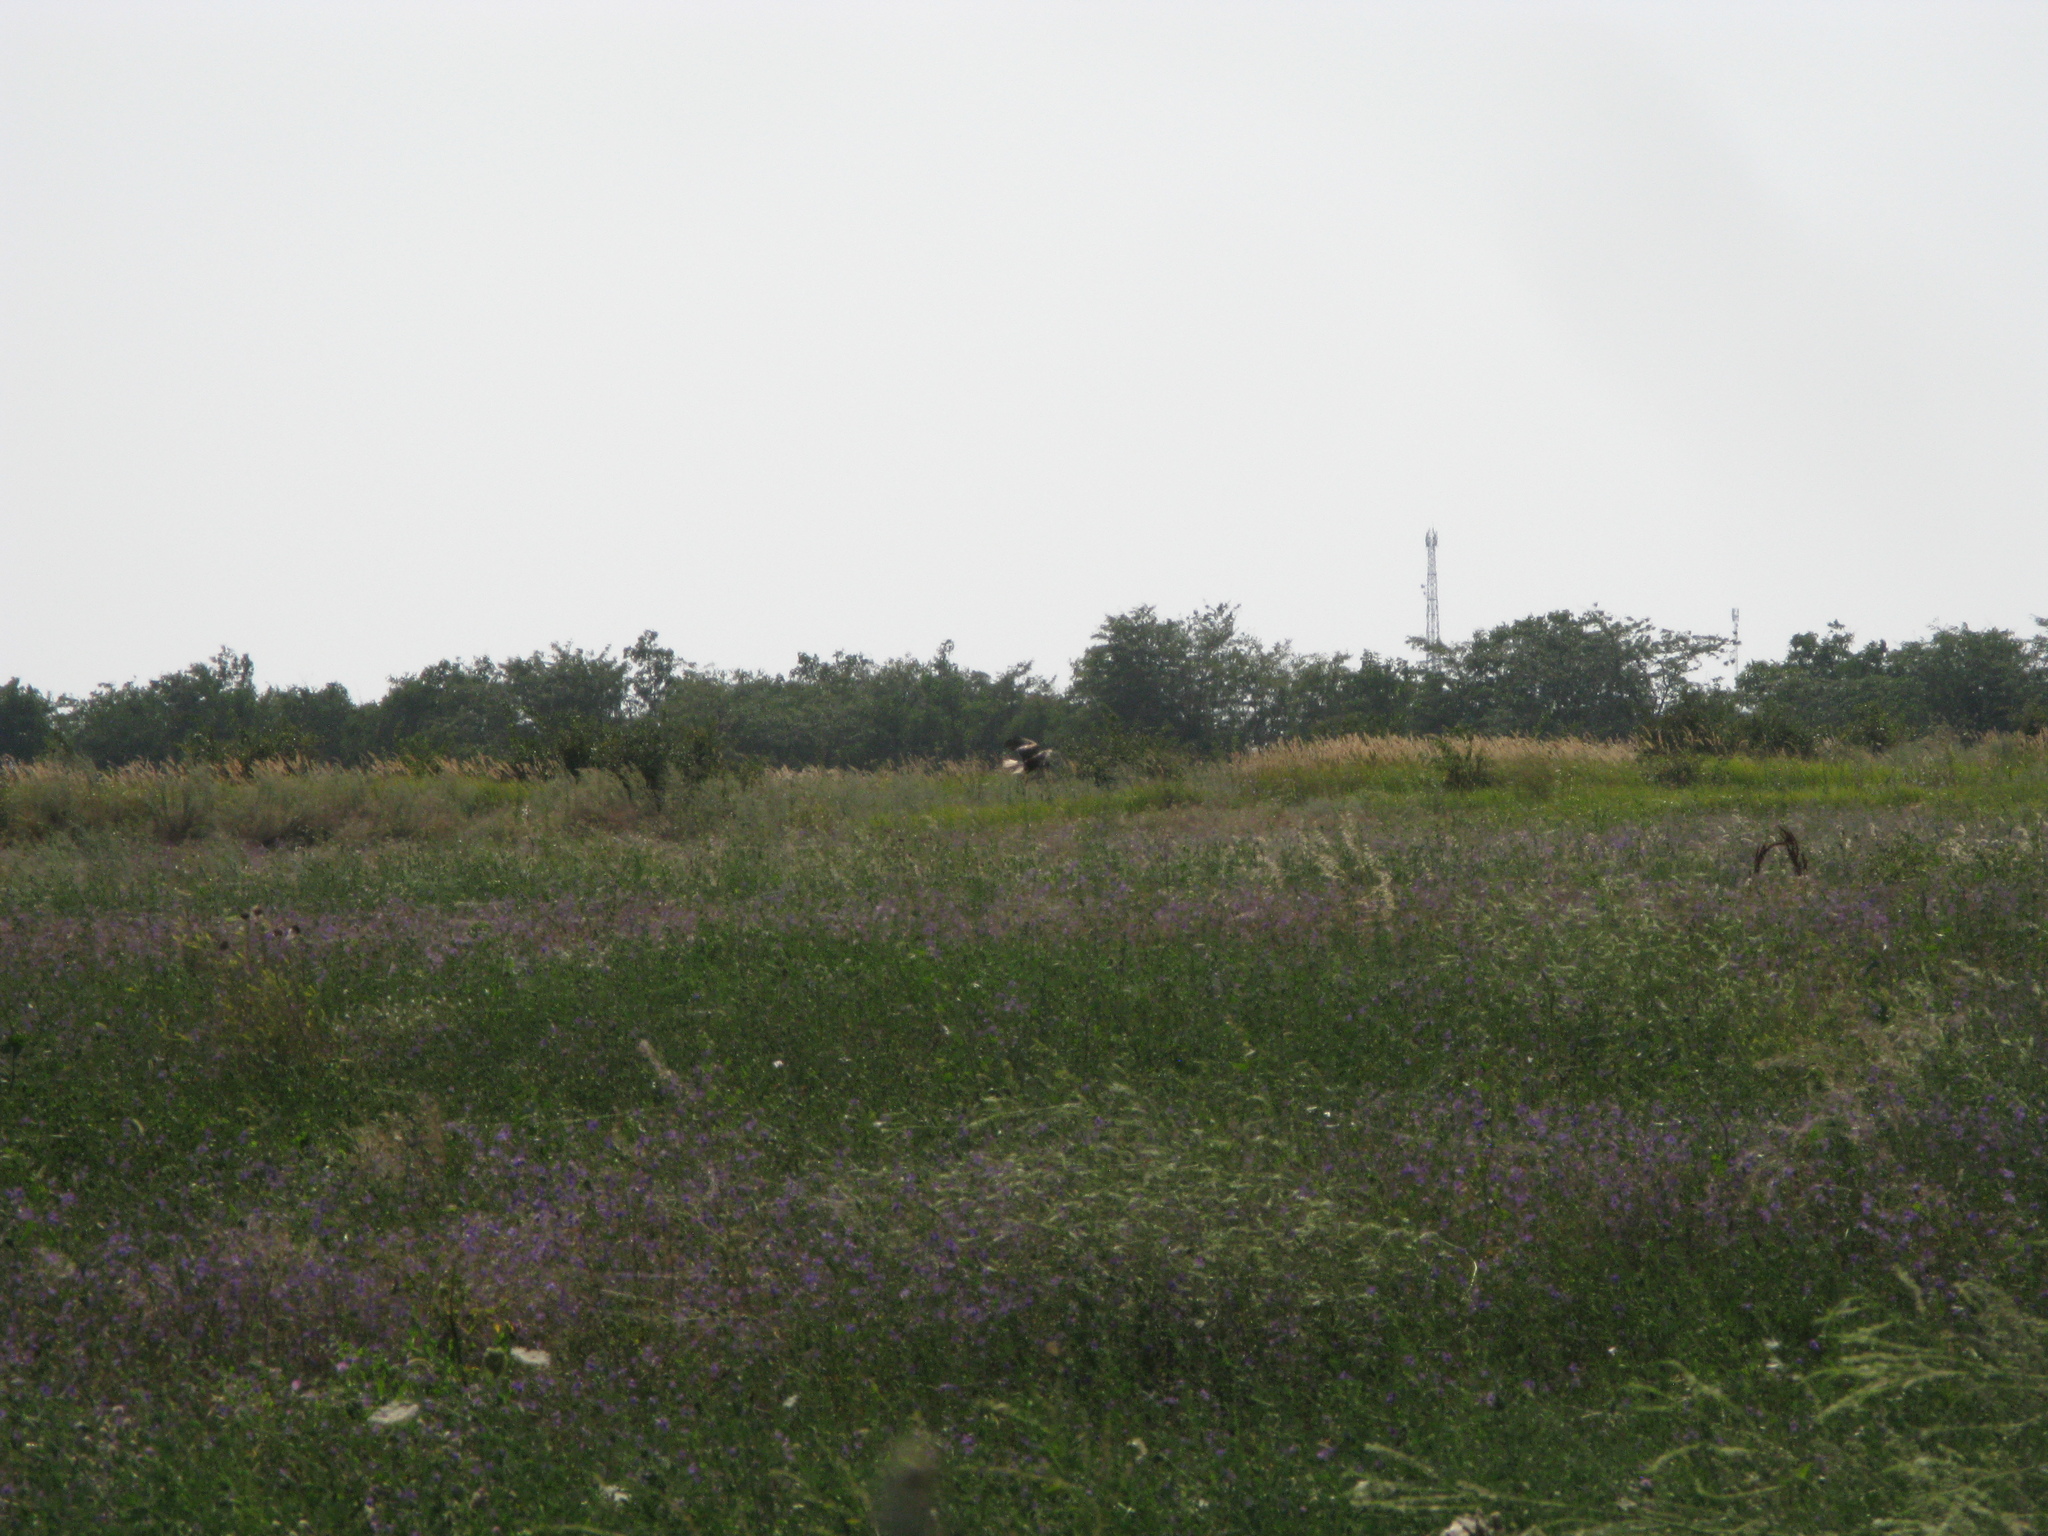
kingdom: Animalia
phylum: Chordata
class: Aves
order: Accipitriformes
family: Accipitridae
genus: Circus
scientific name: Circus aeruginosus
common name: Western marsh harrier
